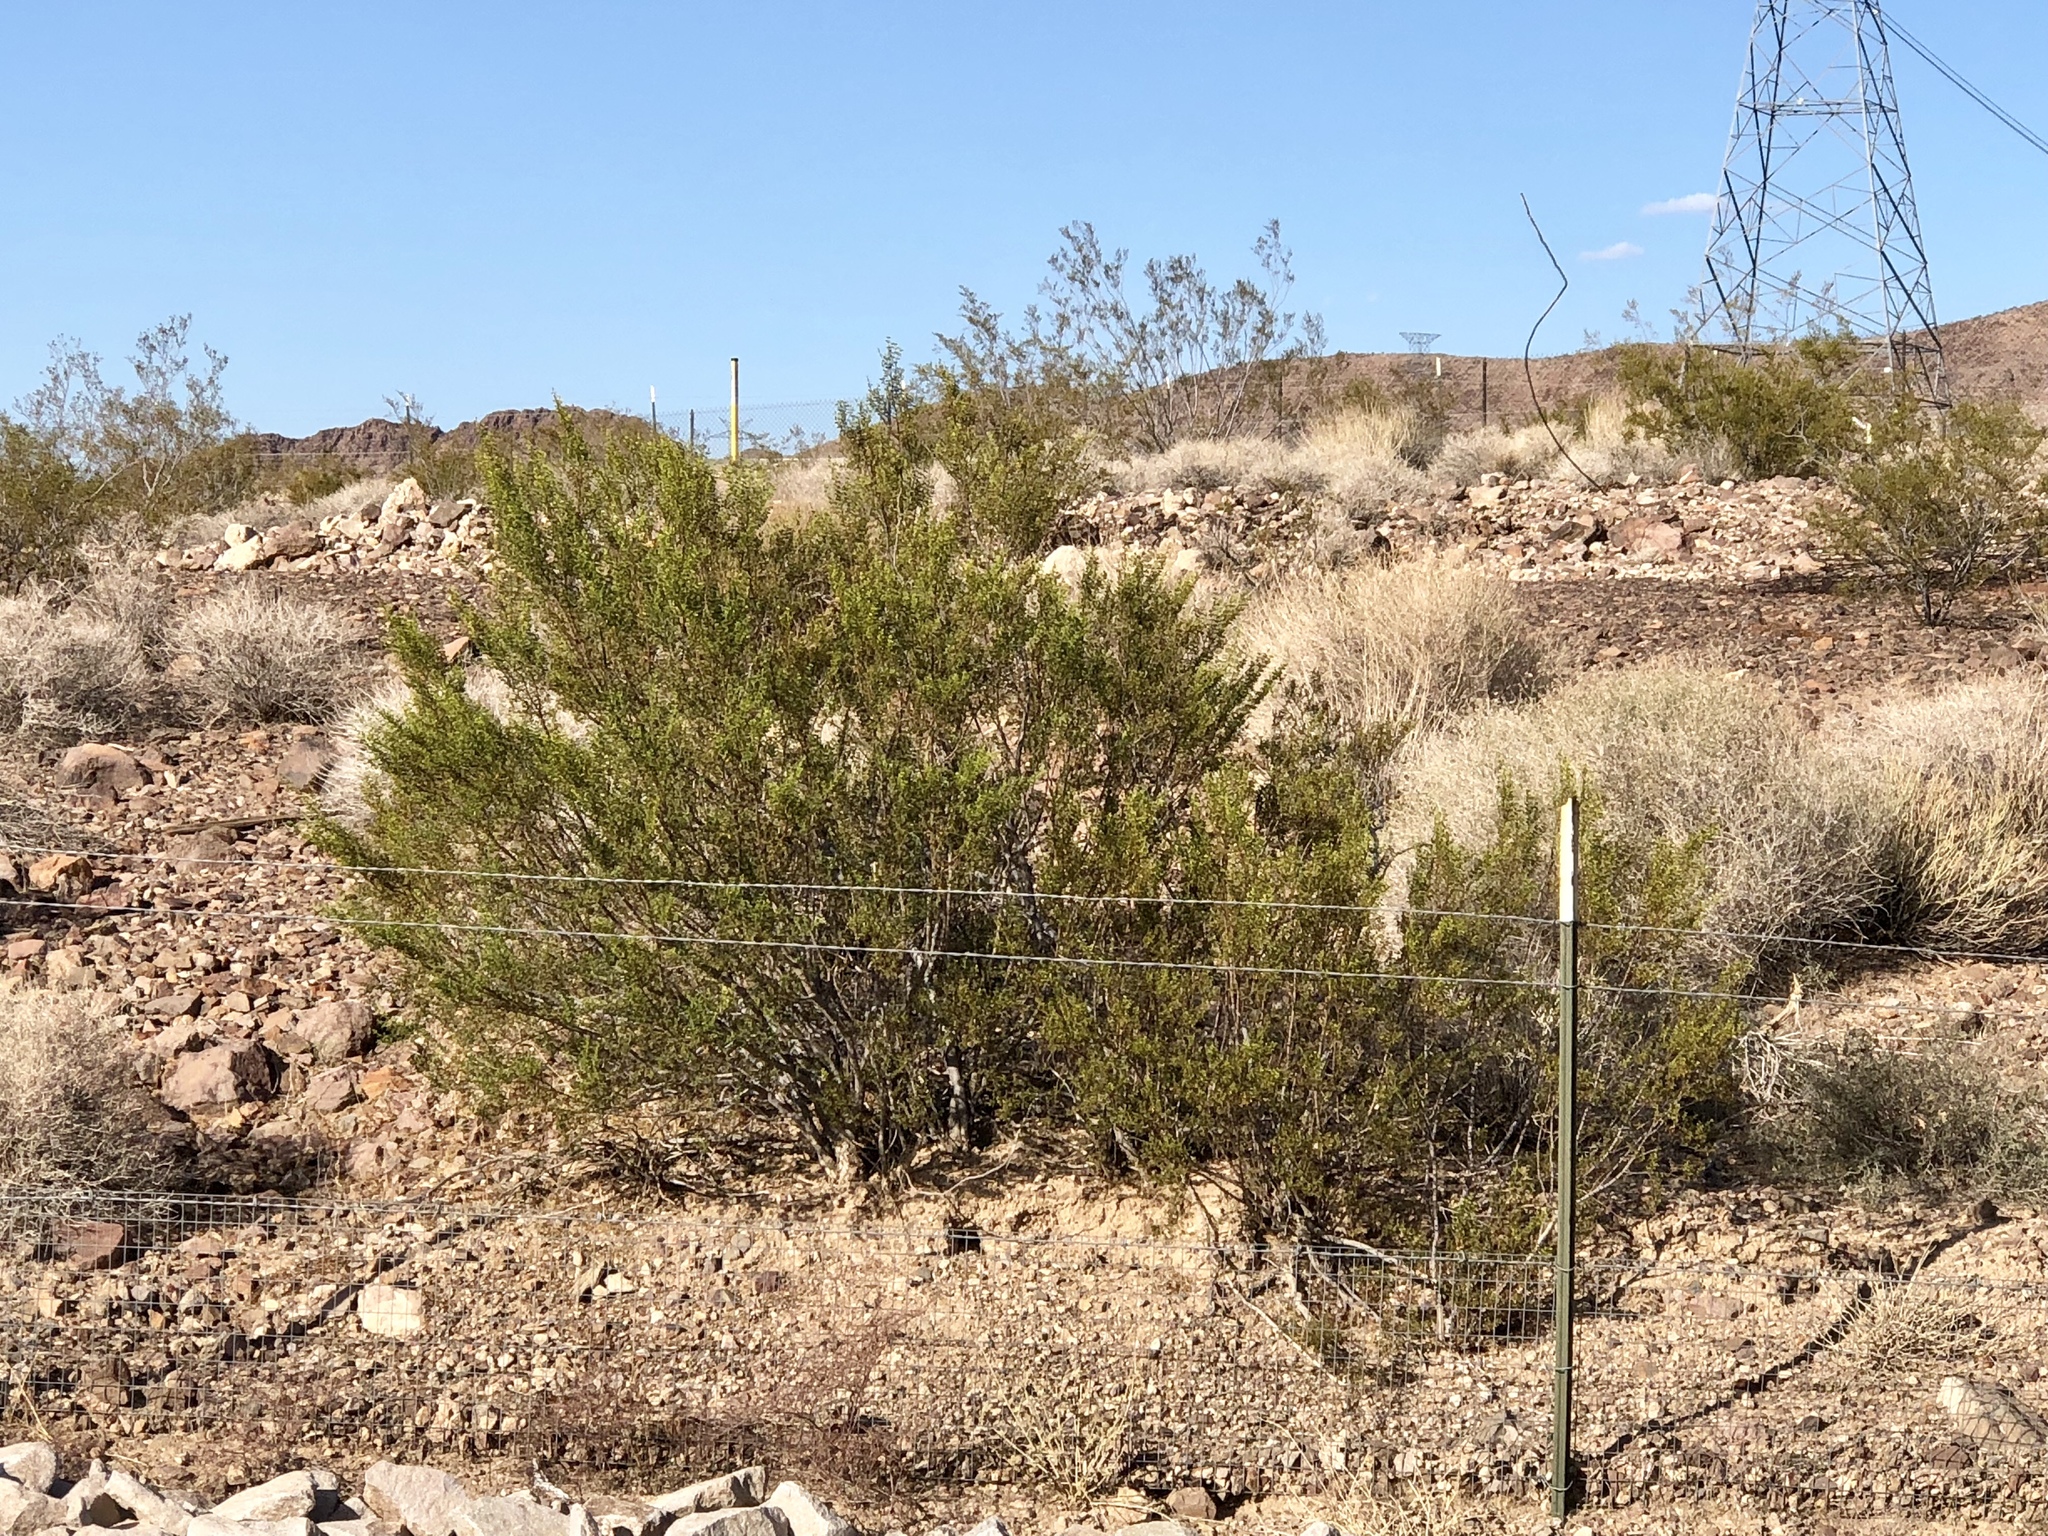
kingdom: Plantae
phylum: Tracheophyta
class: Magnoliopsida
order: Zygophyllales
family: Zygophyllaceae
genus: Larrea
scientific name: Larrea tridentata
